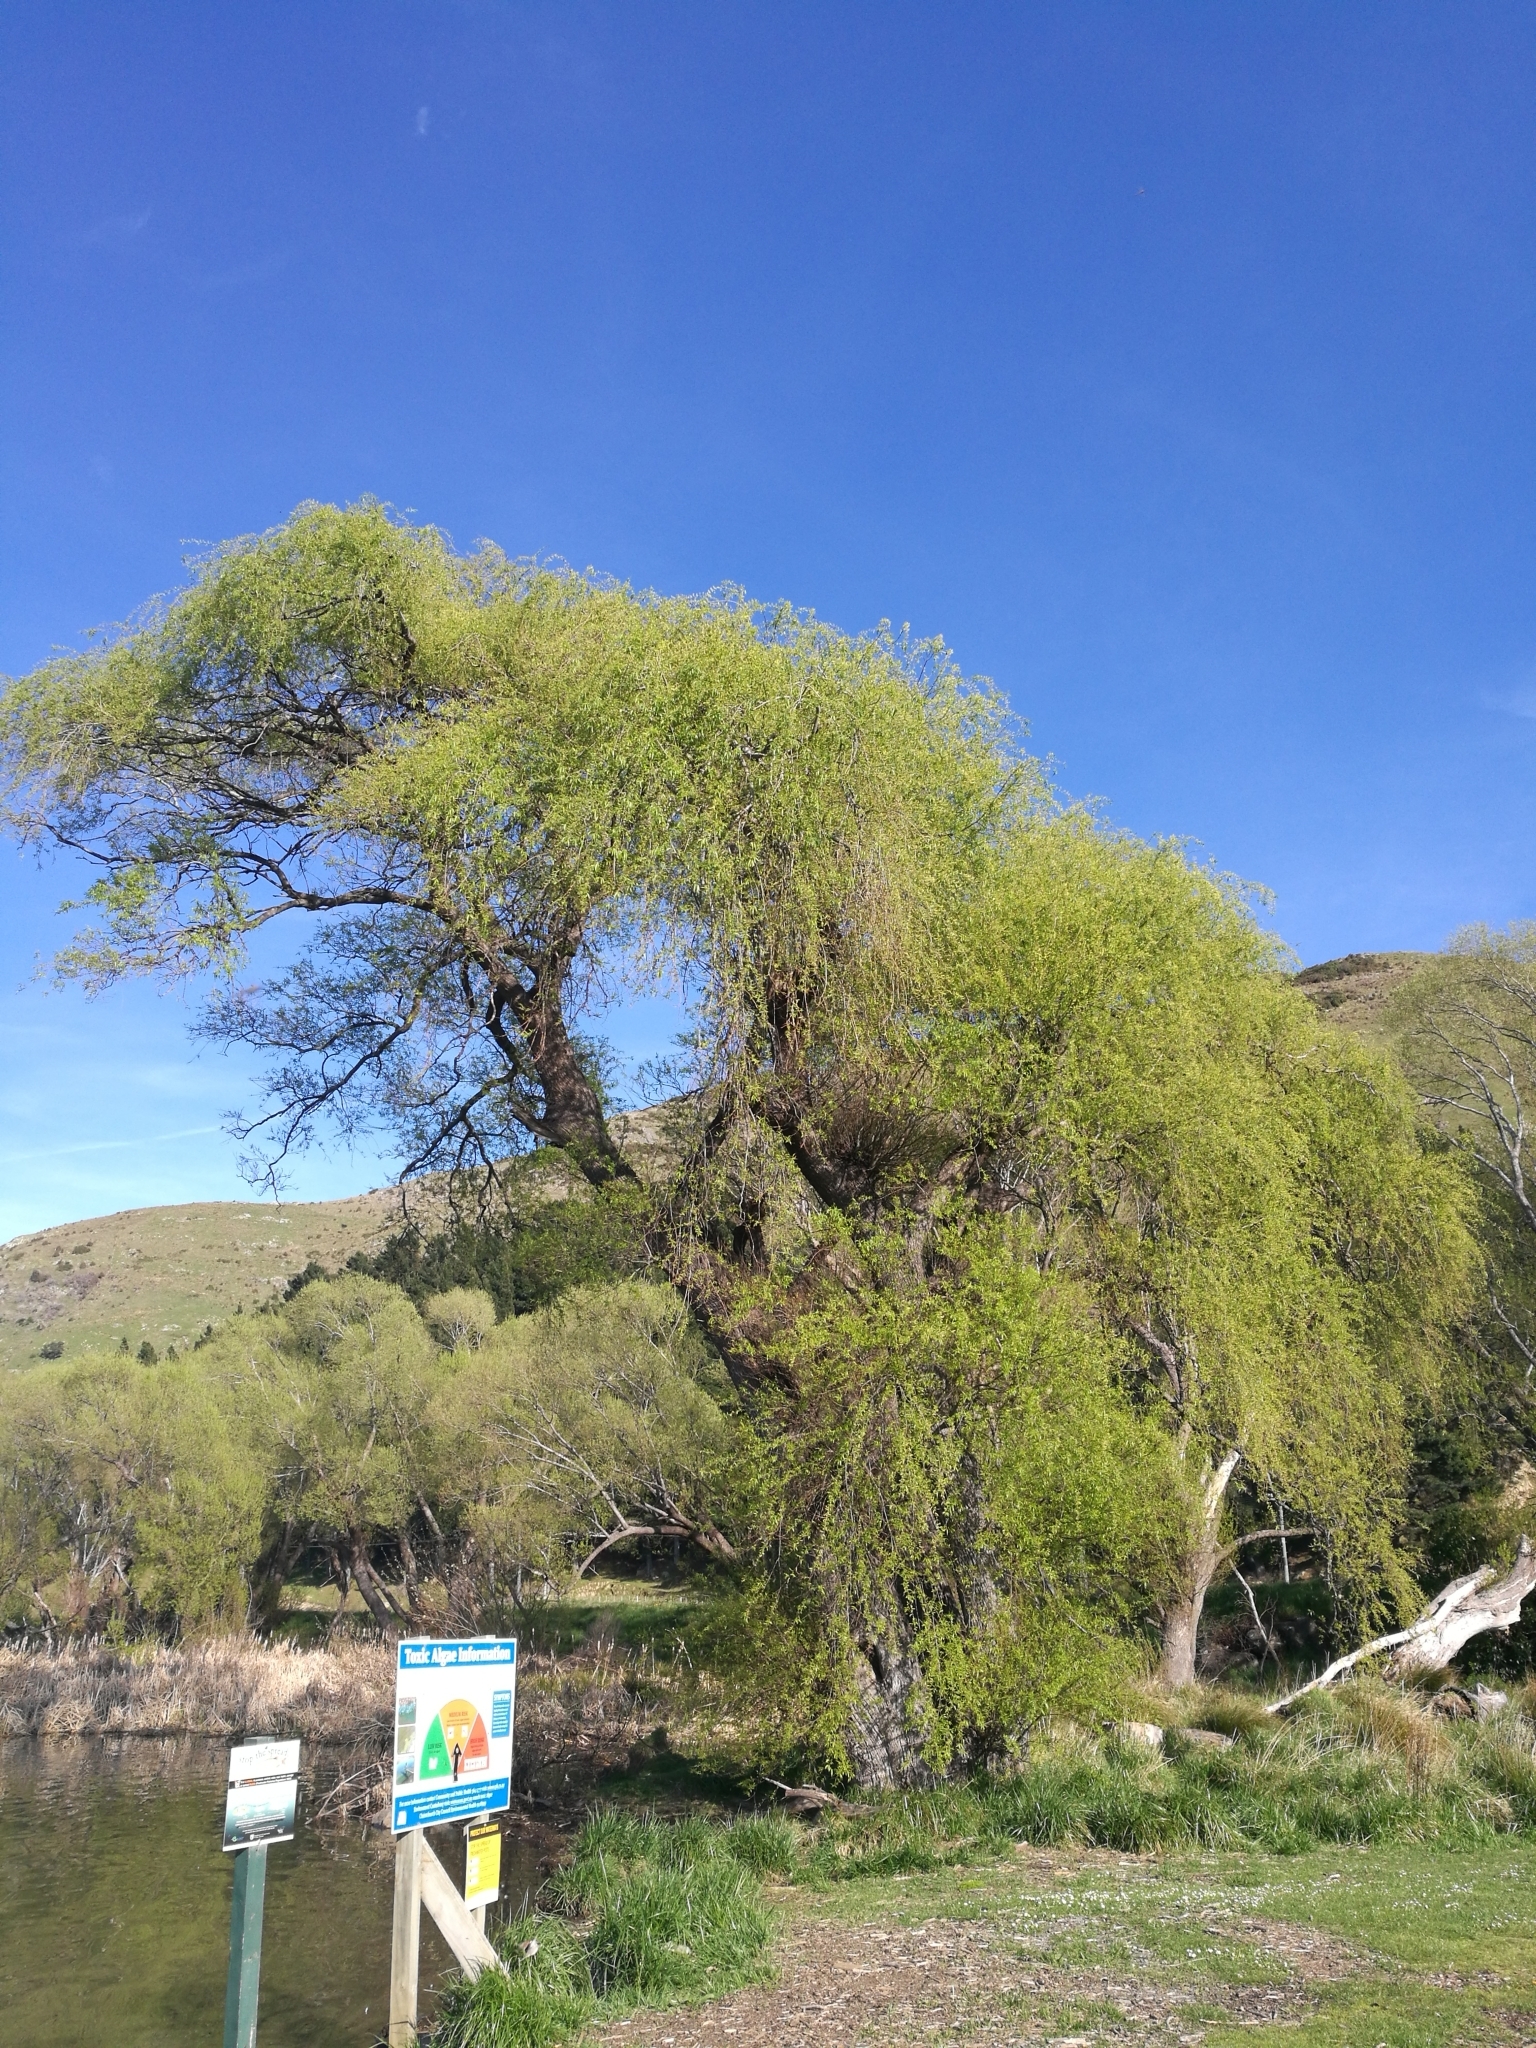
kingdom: Plantae
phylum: Tracheophyta
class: Magnoliopsida
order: Malpighiales
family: Salicaceae
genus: Salix
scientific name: Salix fragilis
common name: Crack willow
